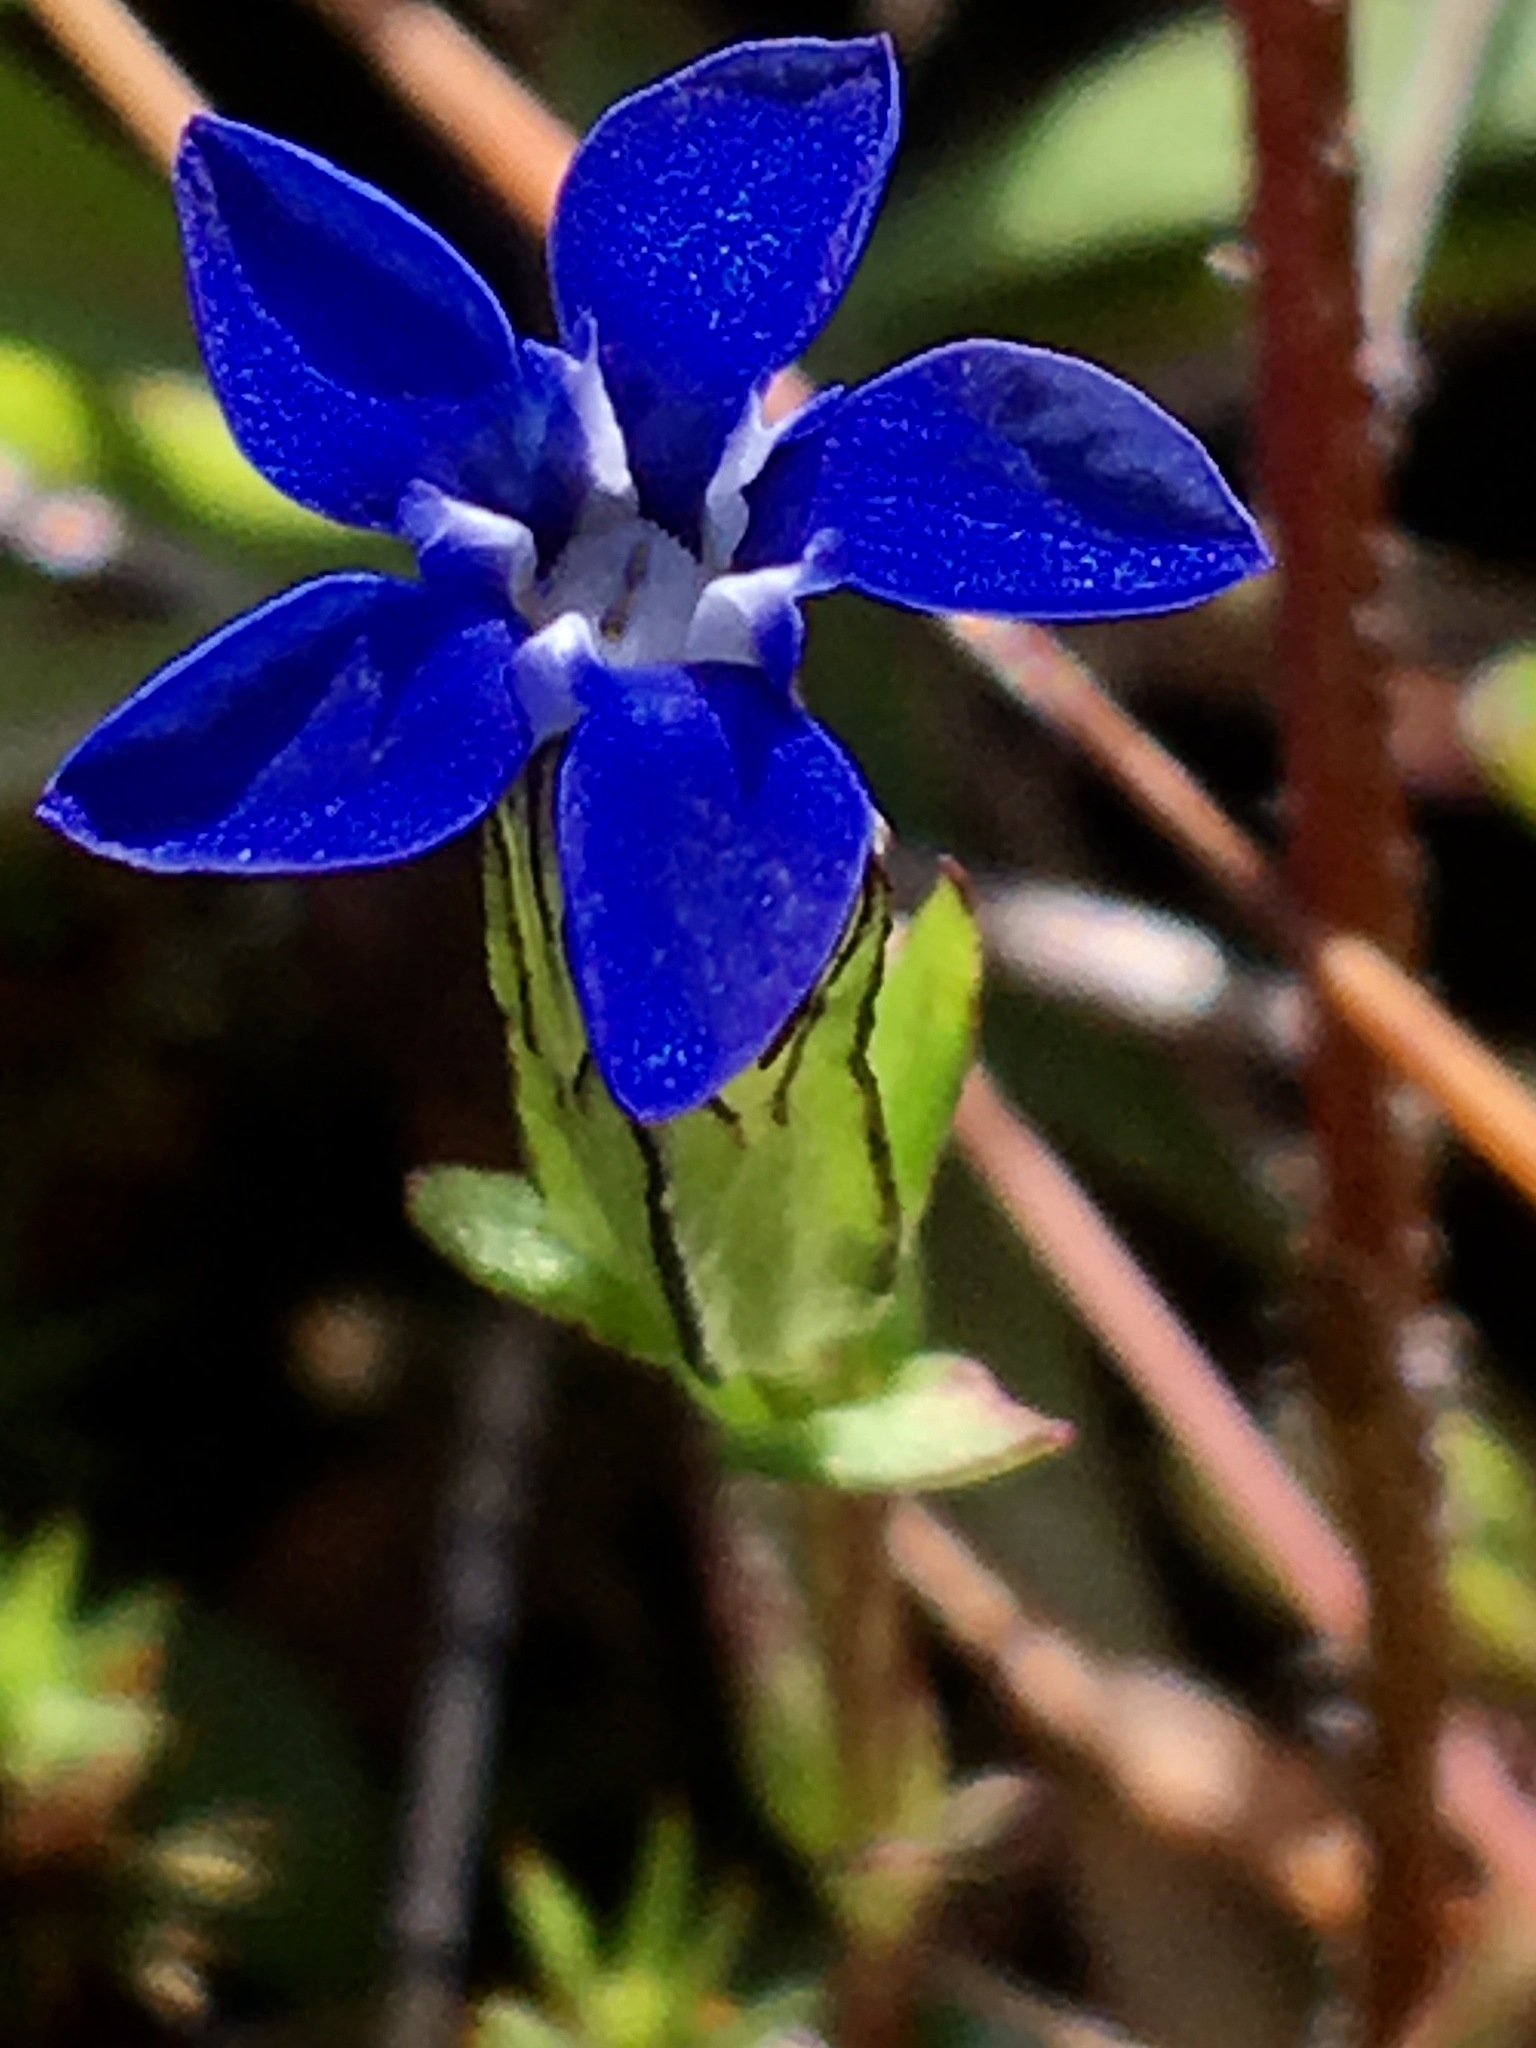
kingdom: Plantae
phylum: Tracheophyta
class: Magnoliopsida
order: Gentianales
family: Gentianaceae
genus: Gentiana
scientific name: Gentiana nivalis
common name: Alpine gentian
